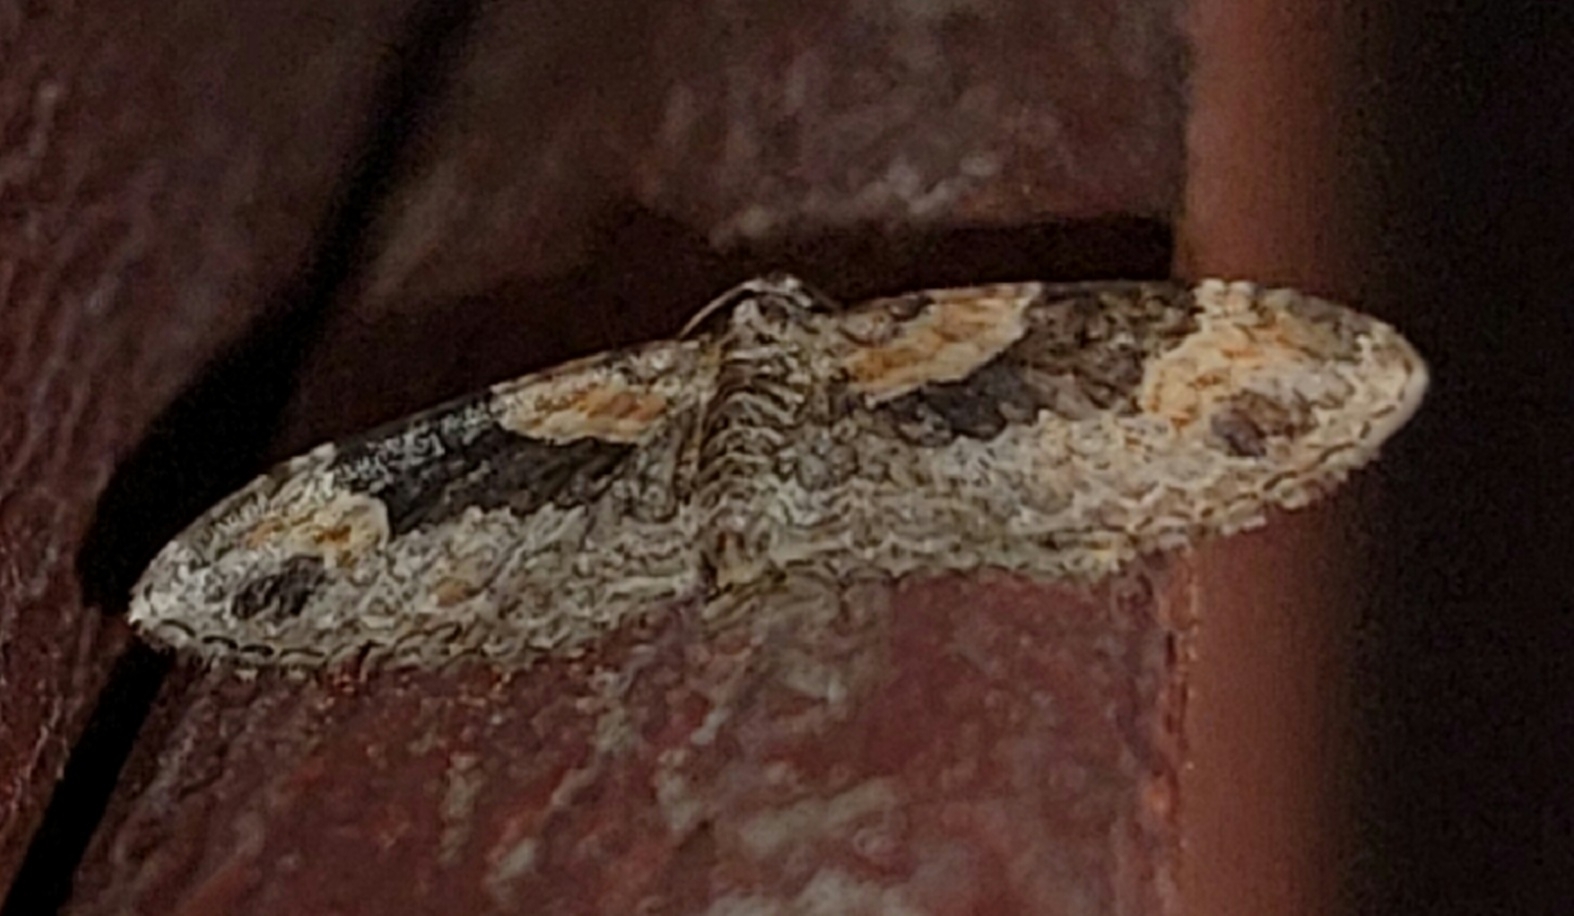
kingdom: Animalia
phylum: Arthropoda
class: Insecta
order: Lepidoptera
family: Geometridae
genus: Xanthorhoe
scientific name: Xanthorhoe ferrugata
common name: Dark-barred twin-spot carpet
